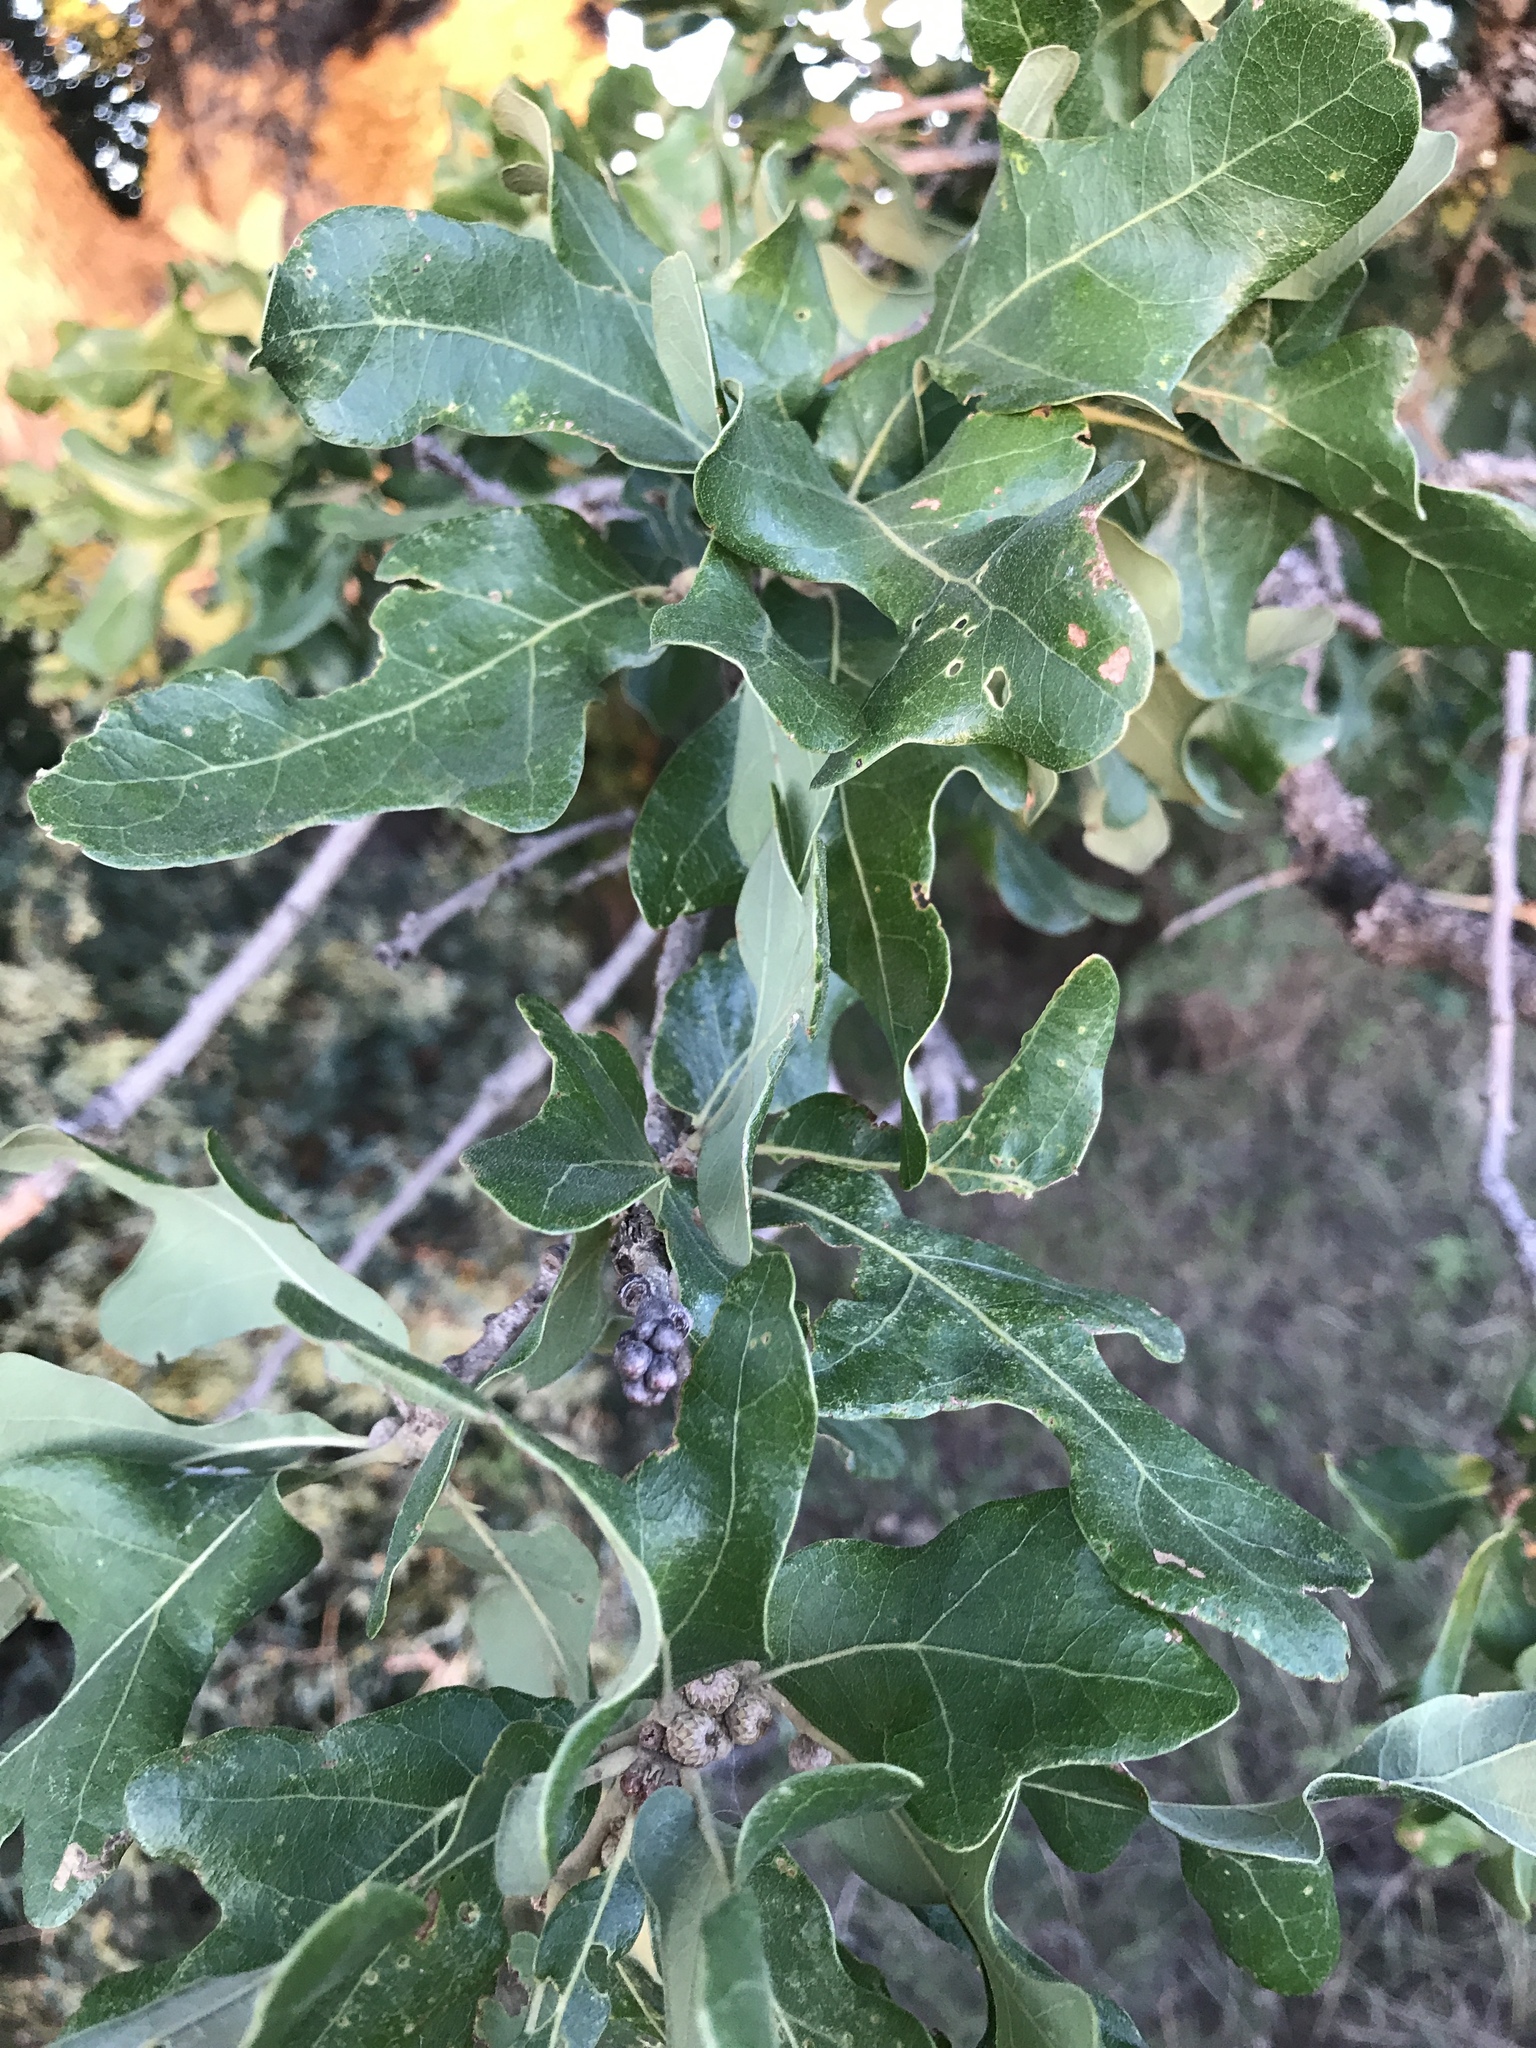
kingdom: Plantae
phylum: Tracheophyta
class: Magnoliopsida
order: Fagales
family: Fagaceae
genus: Quercus
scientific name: Quercus stellata
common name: Post oak
